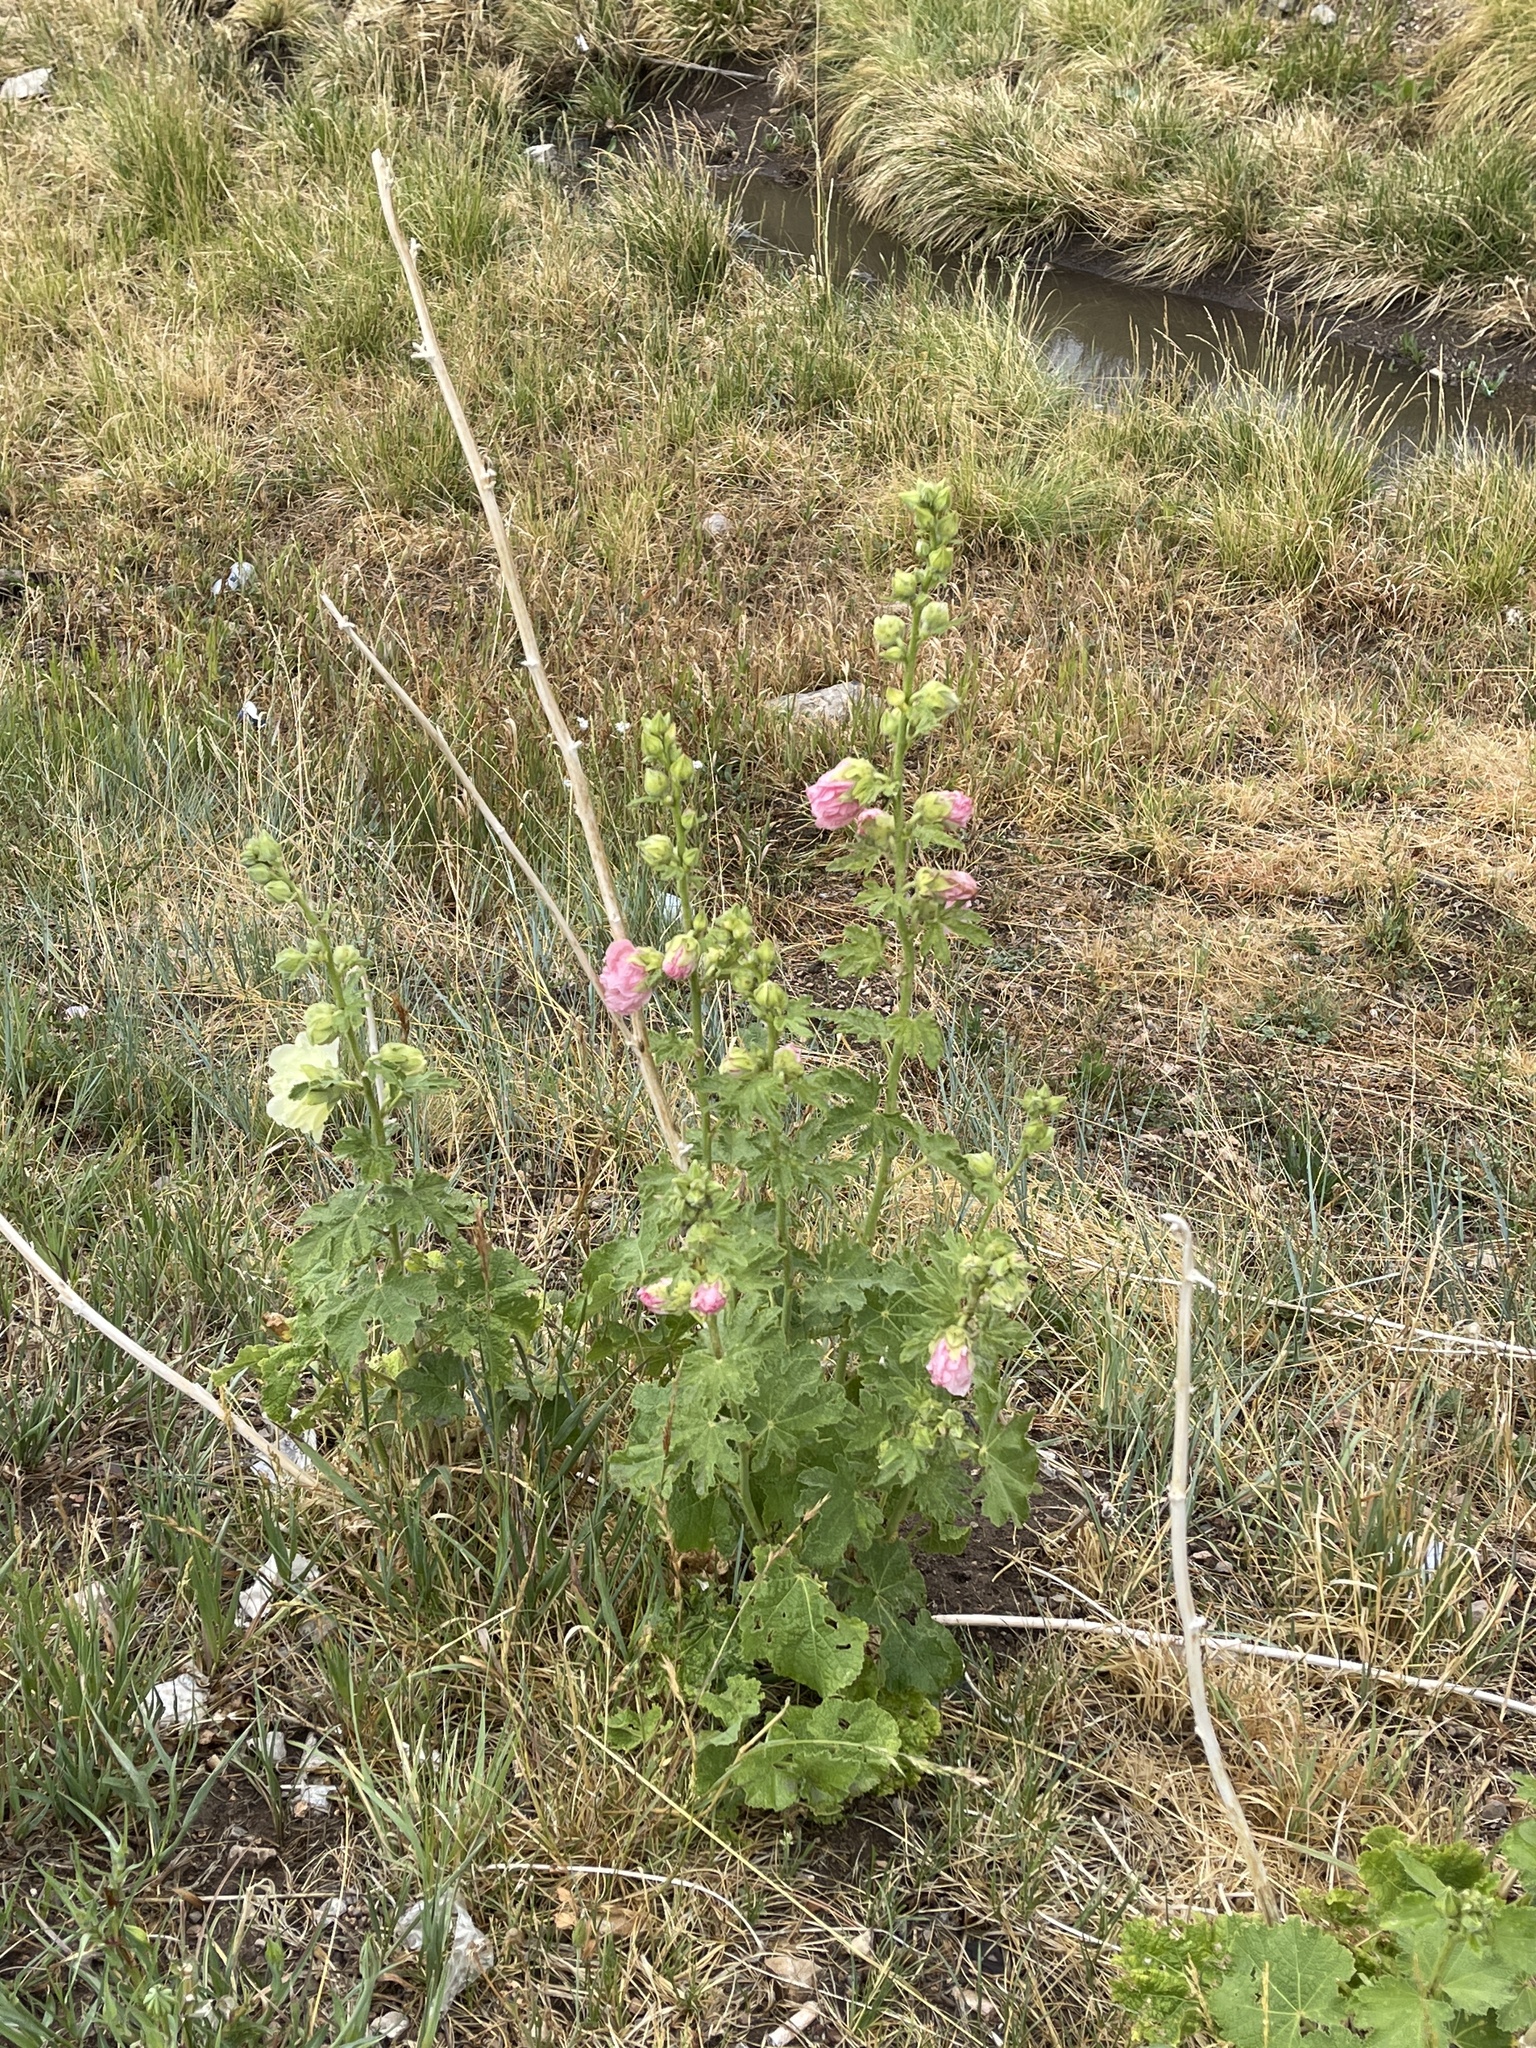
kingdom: Plantae
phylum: Tracheophyta
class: Magnoliopsida
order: Malvales
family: Malvaceae
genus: Alcea
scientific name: Alcea rosea
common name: Hollyhock
